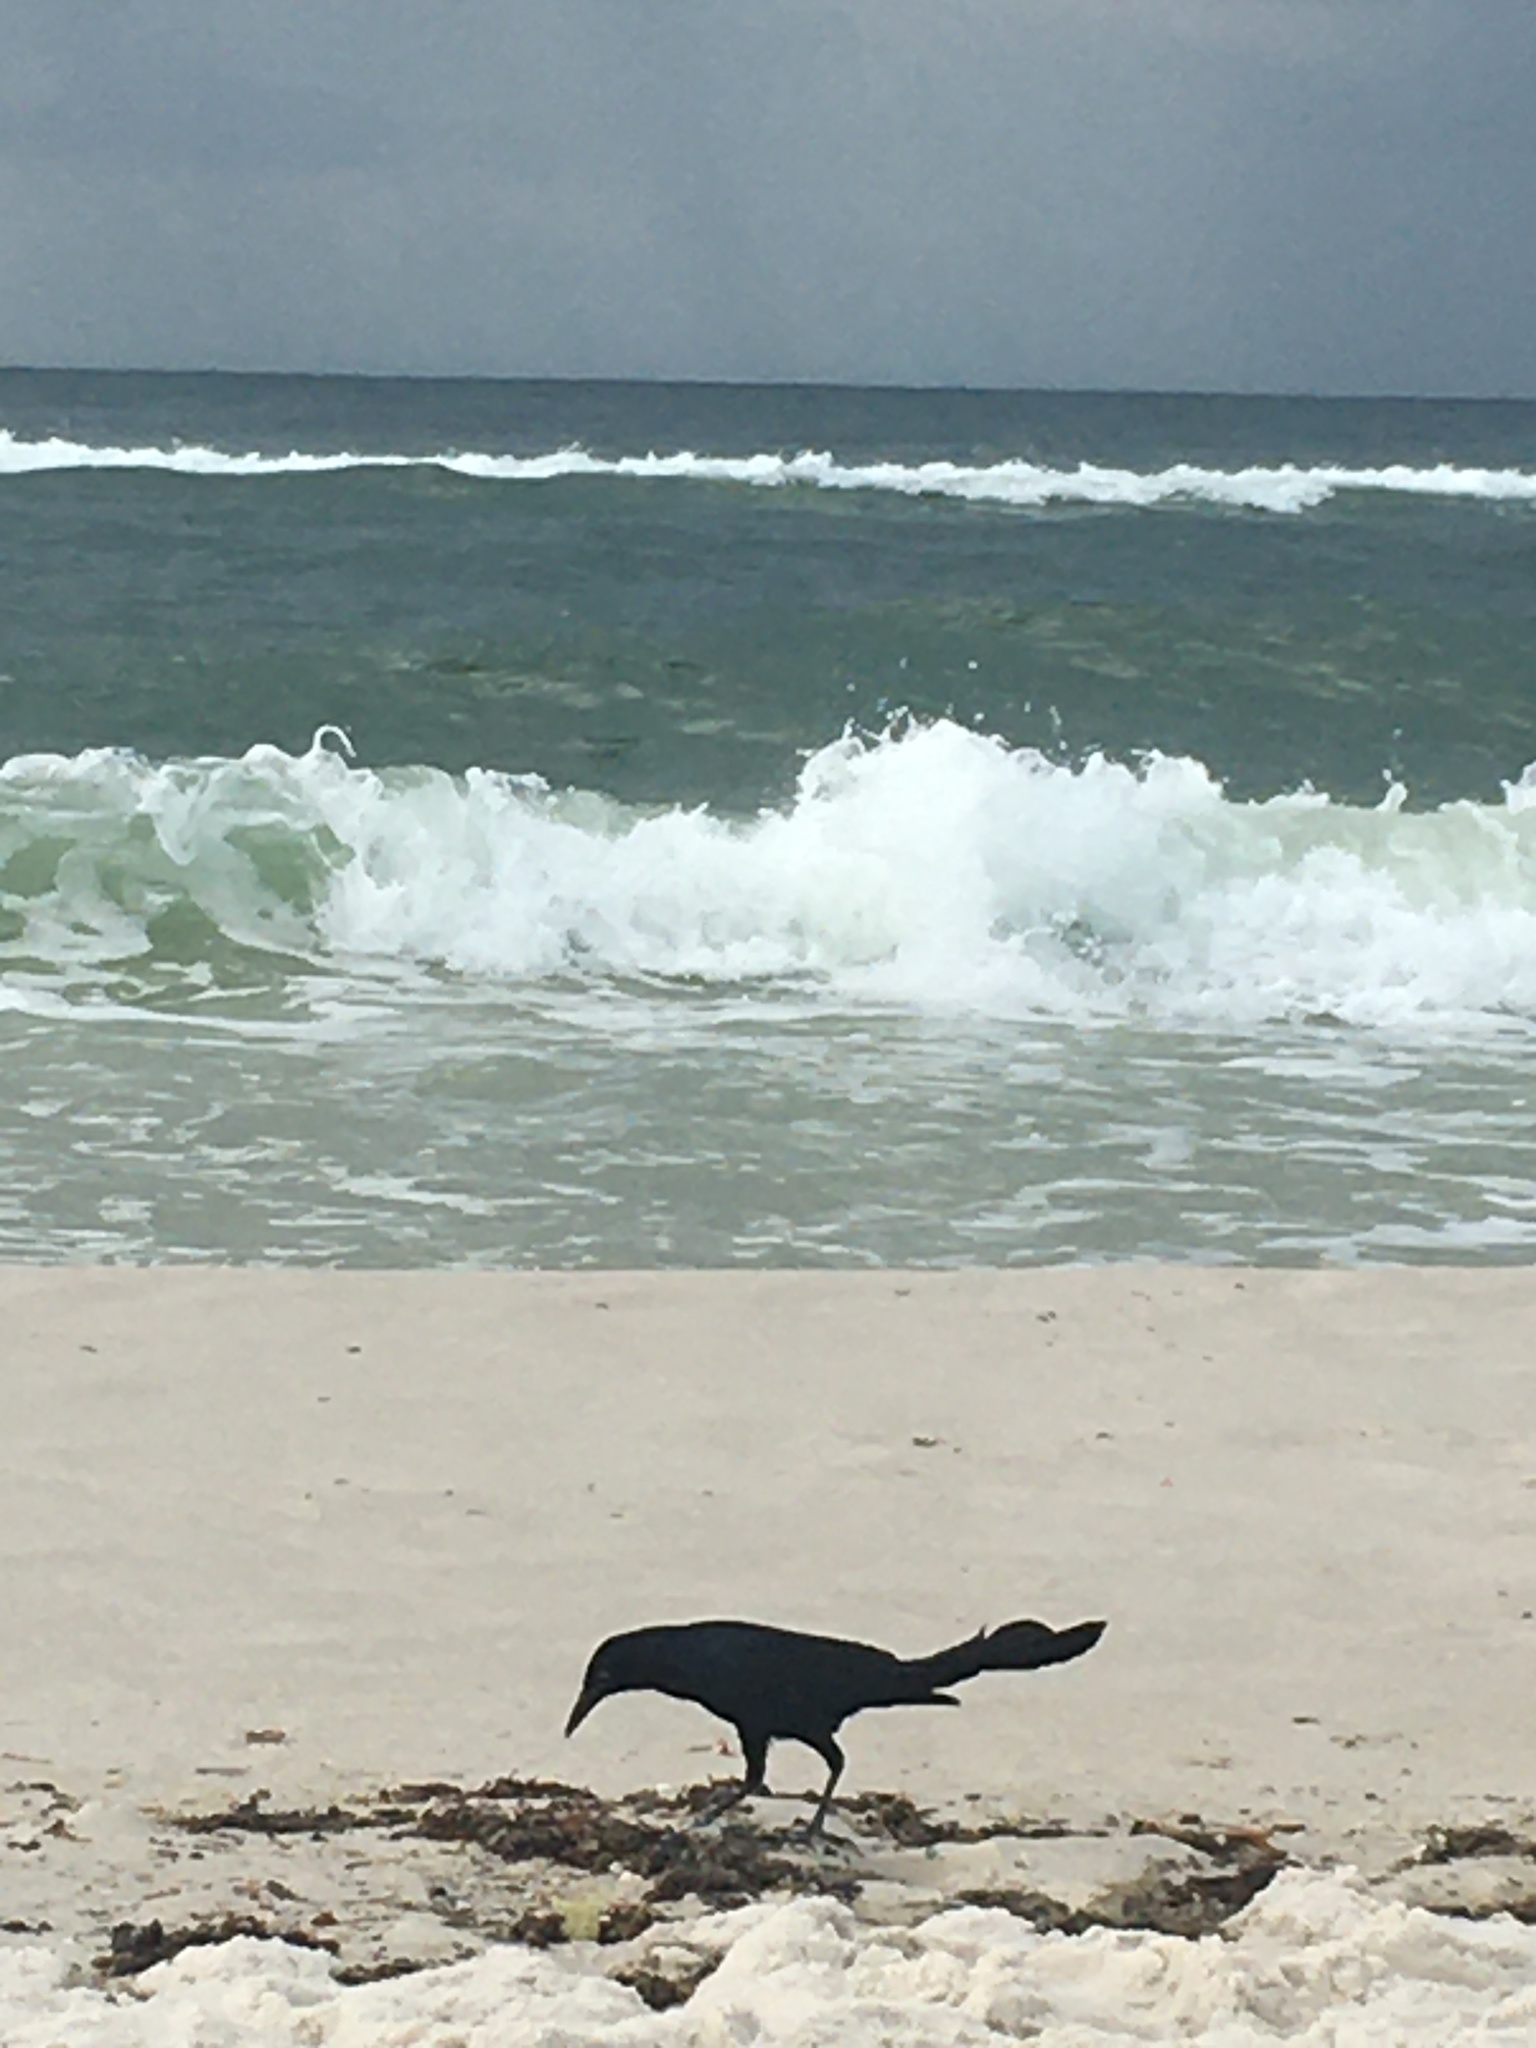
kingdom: Animalia
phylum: Chordata
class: Aves
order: Passeriformes
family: Icteridae
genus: Quiscalus
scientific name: Quiscalus major
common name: Boat-tailed grackle
